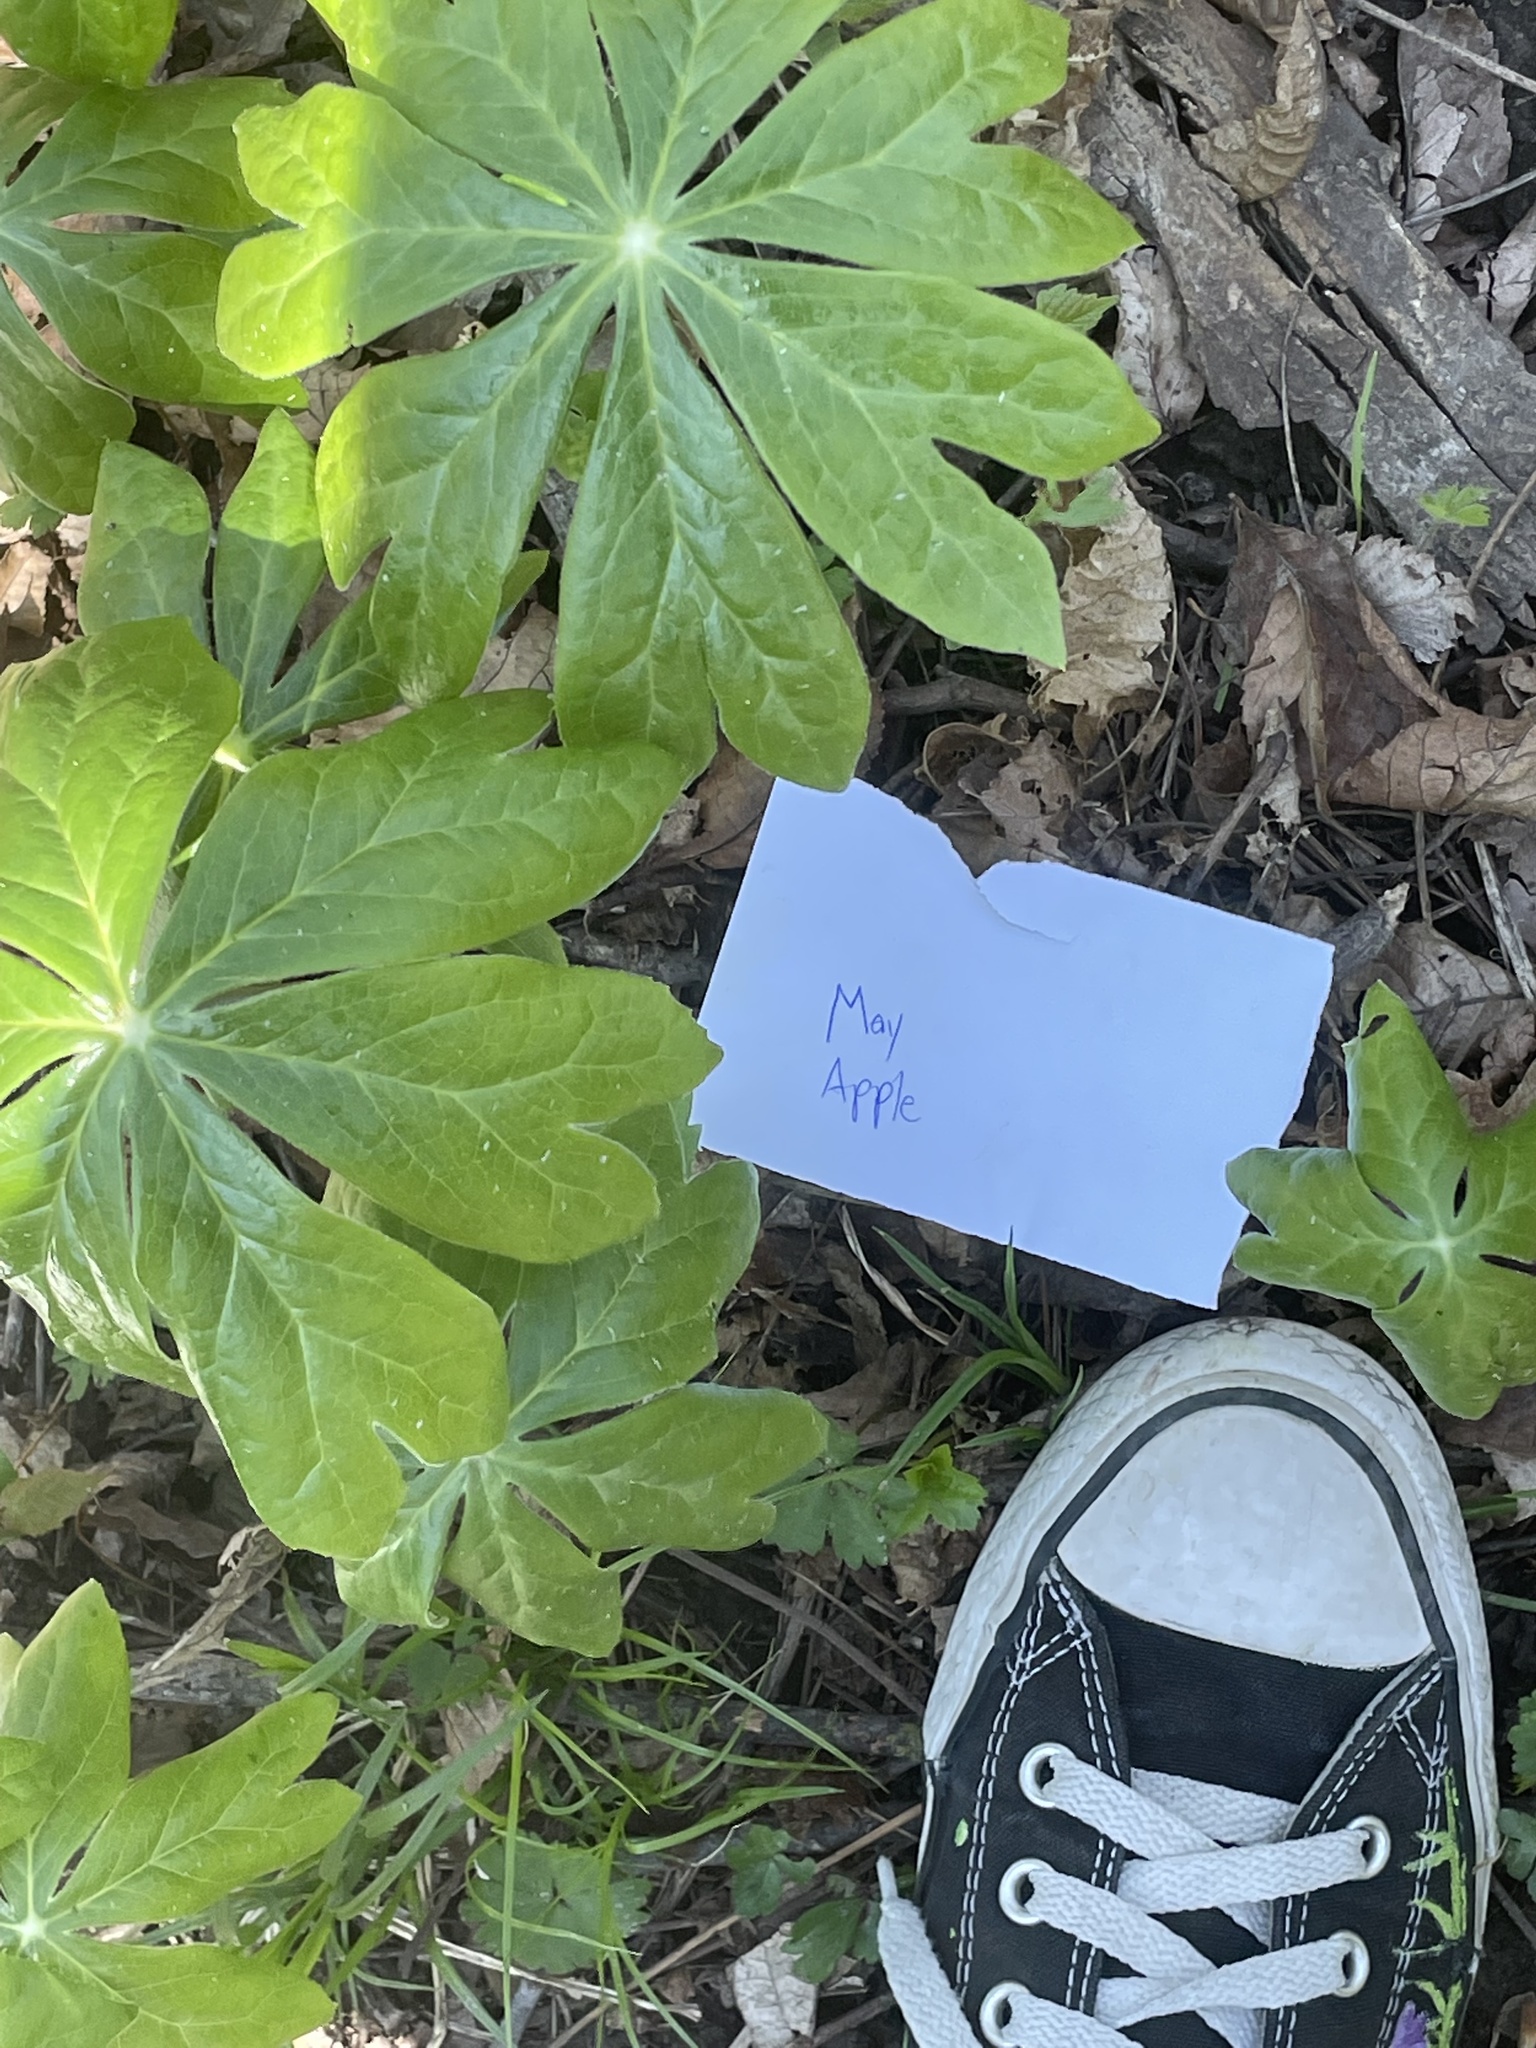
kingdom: Plantae
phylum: Tracheophyta
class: Magnoliopsida
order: Ranunculales
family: Berberidaceae
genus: Podophyllum
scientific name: Podophyllum peltatum
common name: Wild mandrake
